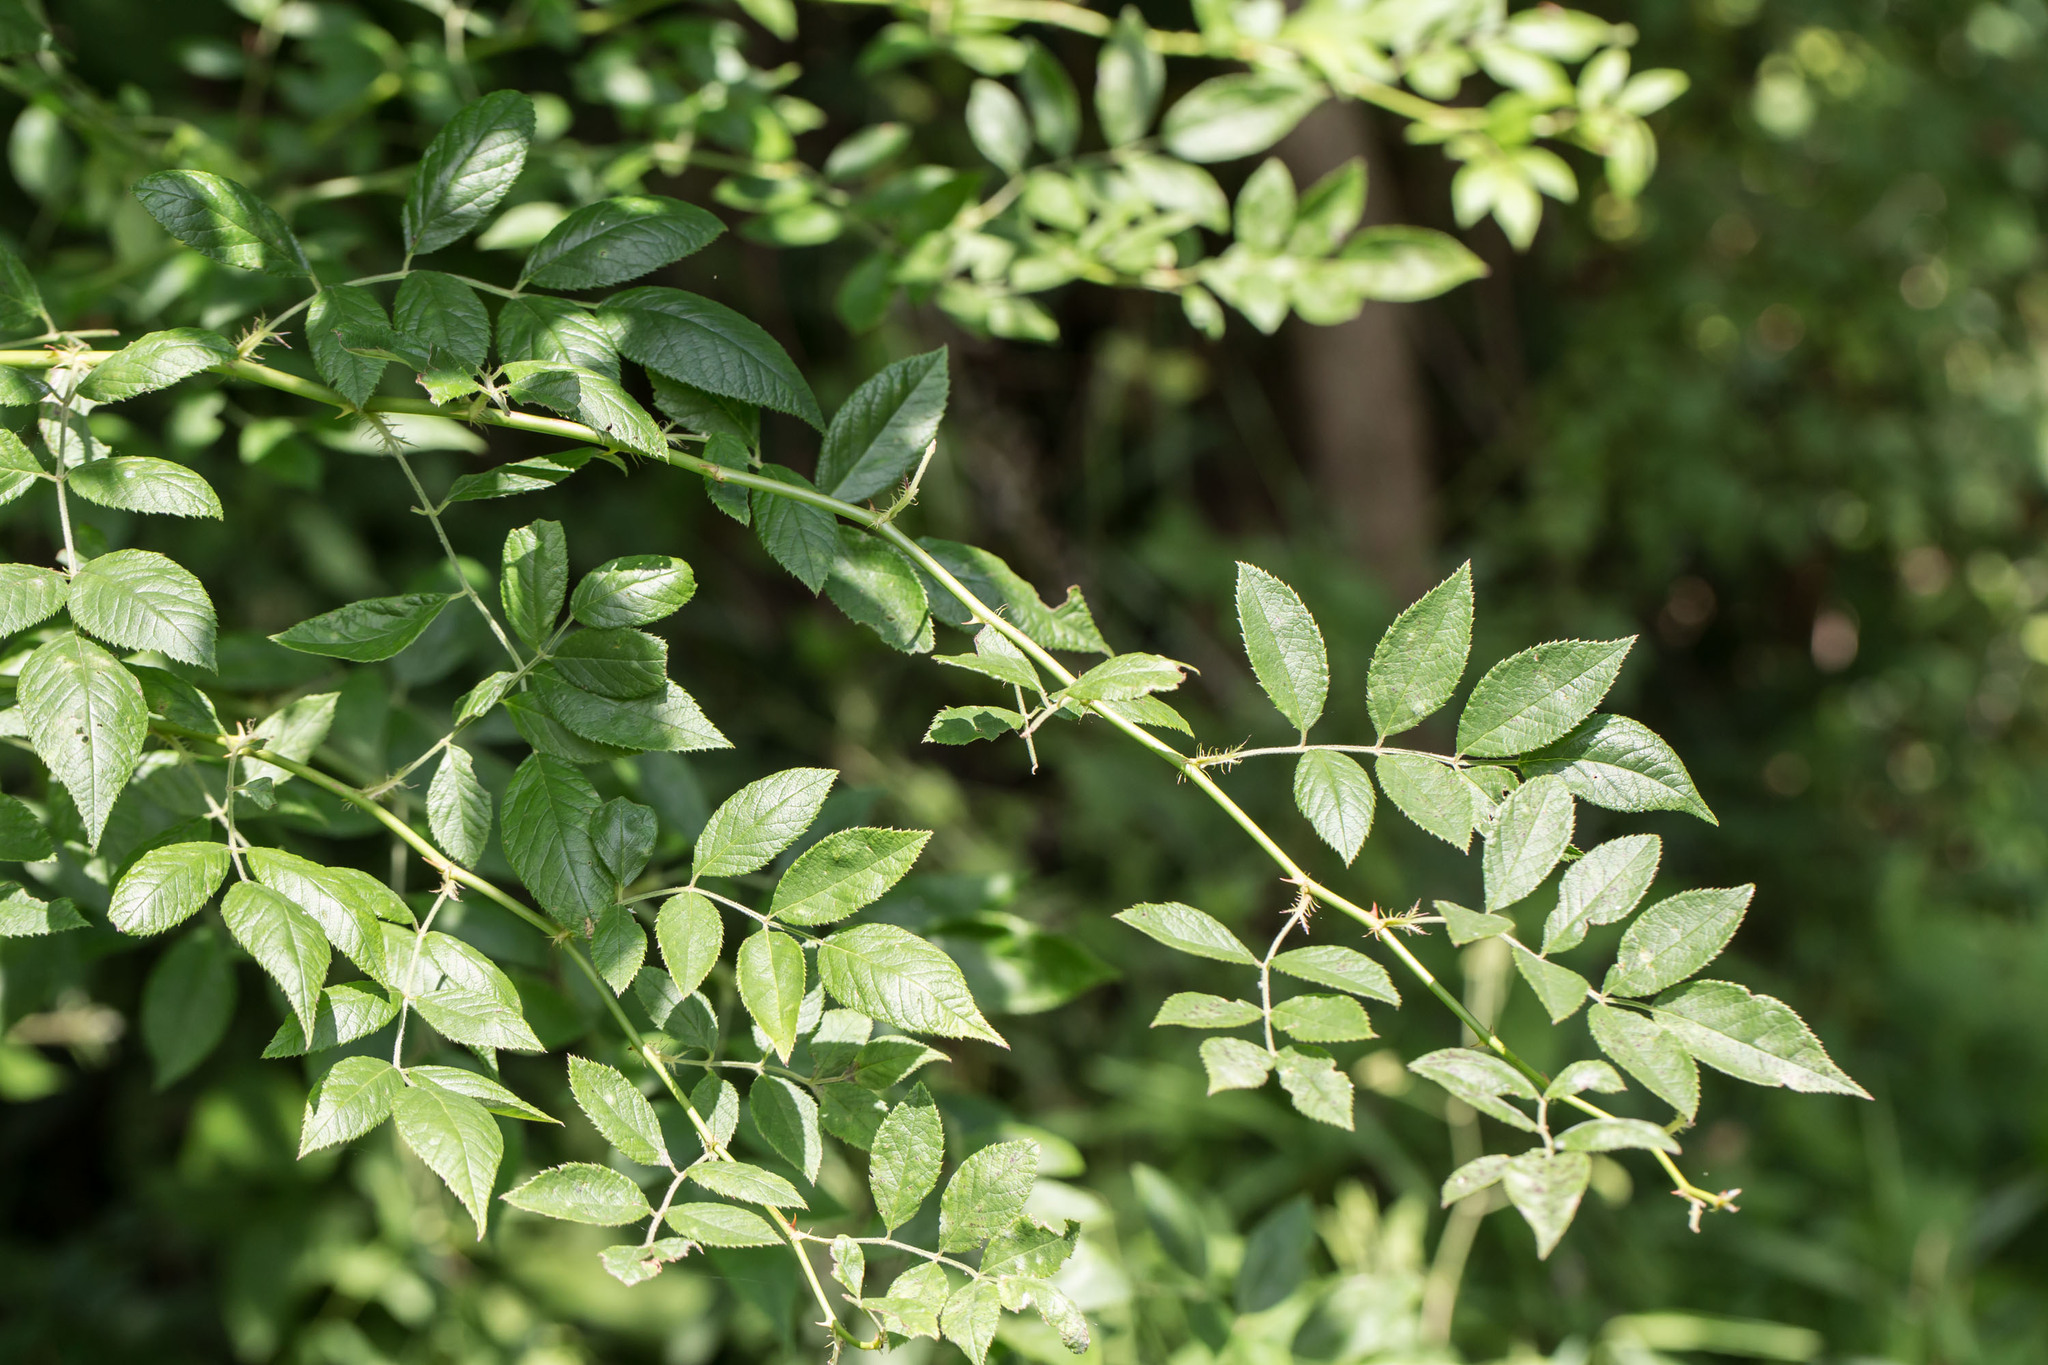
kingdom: Plantae
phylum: Tracheophyta
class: Magnoliopsida
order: Rosales
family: Rosaceae
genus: Rosa
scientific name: Rosa multiflora
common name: Multiflora rose
